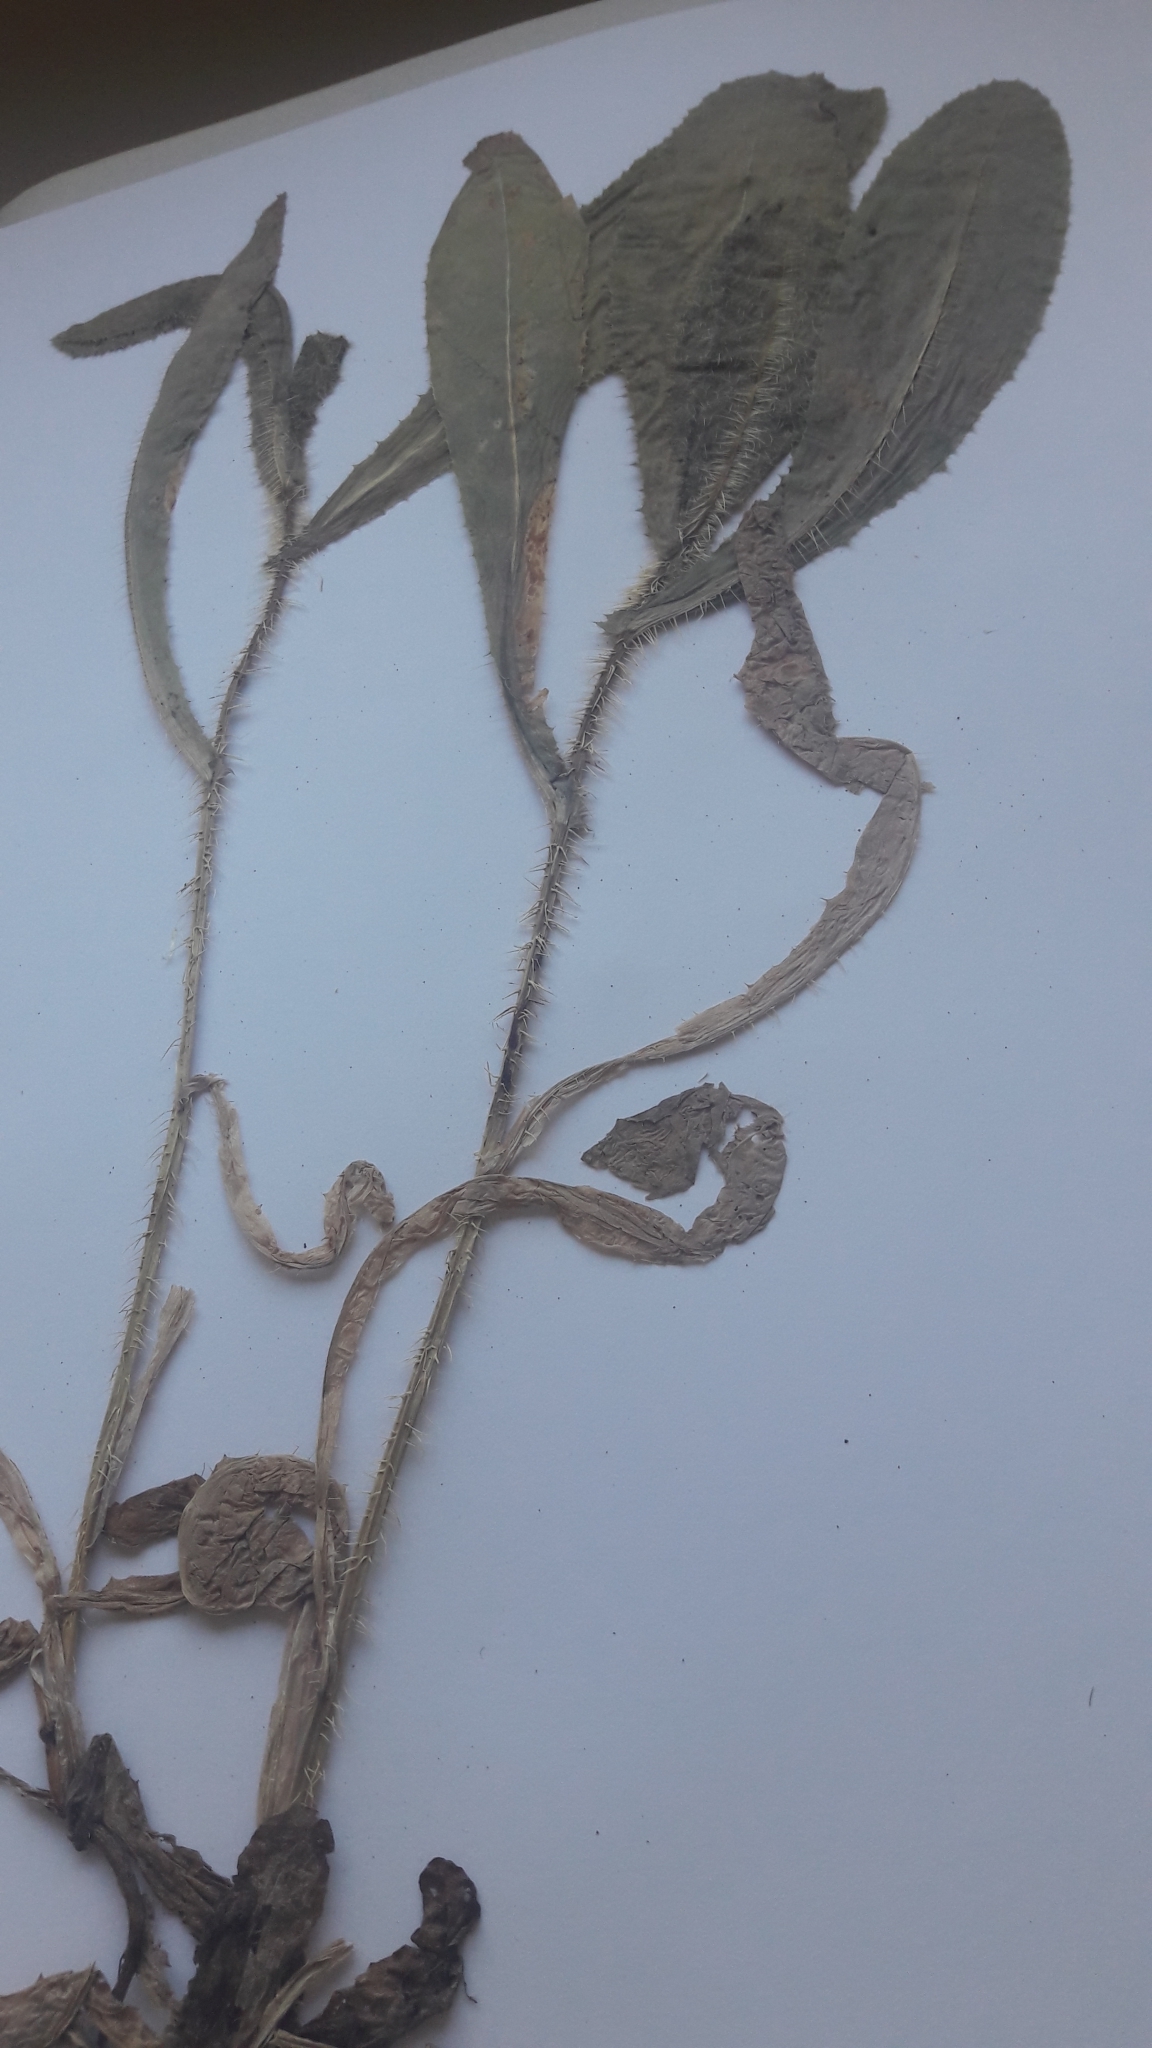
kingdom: Plantae
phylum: Tracheophyta
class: Magnoliopsida
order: Asterales
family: Asteraceae
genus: Lactuca
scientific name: Lactuca aculeata
